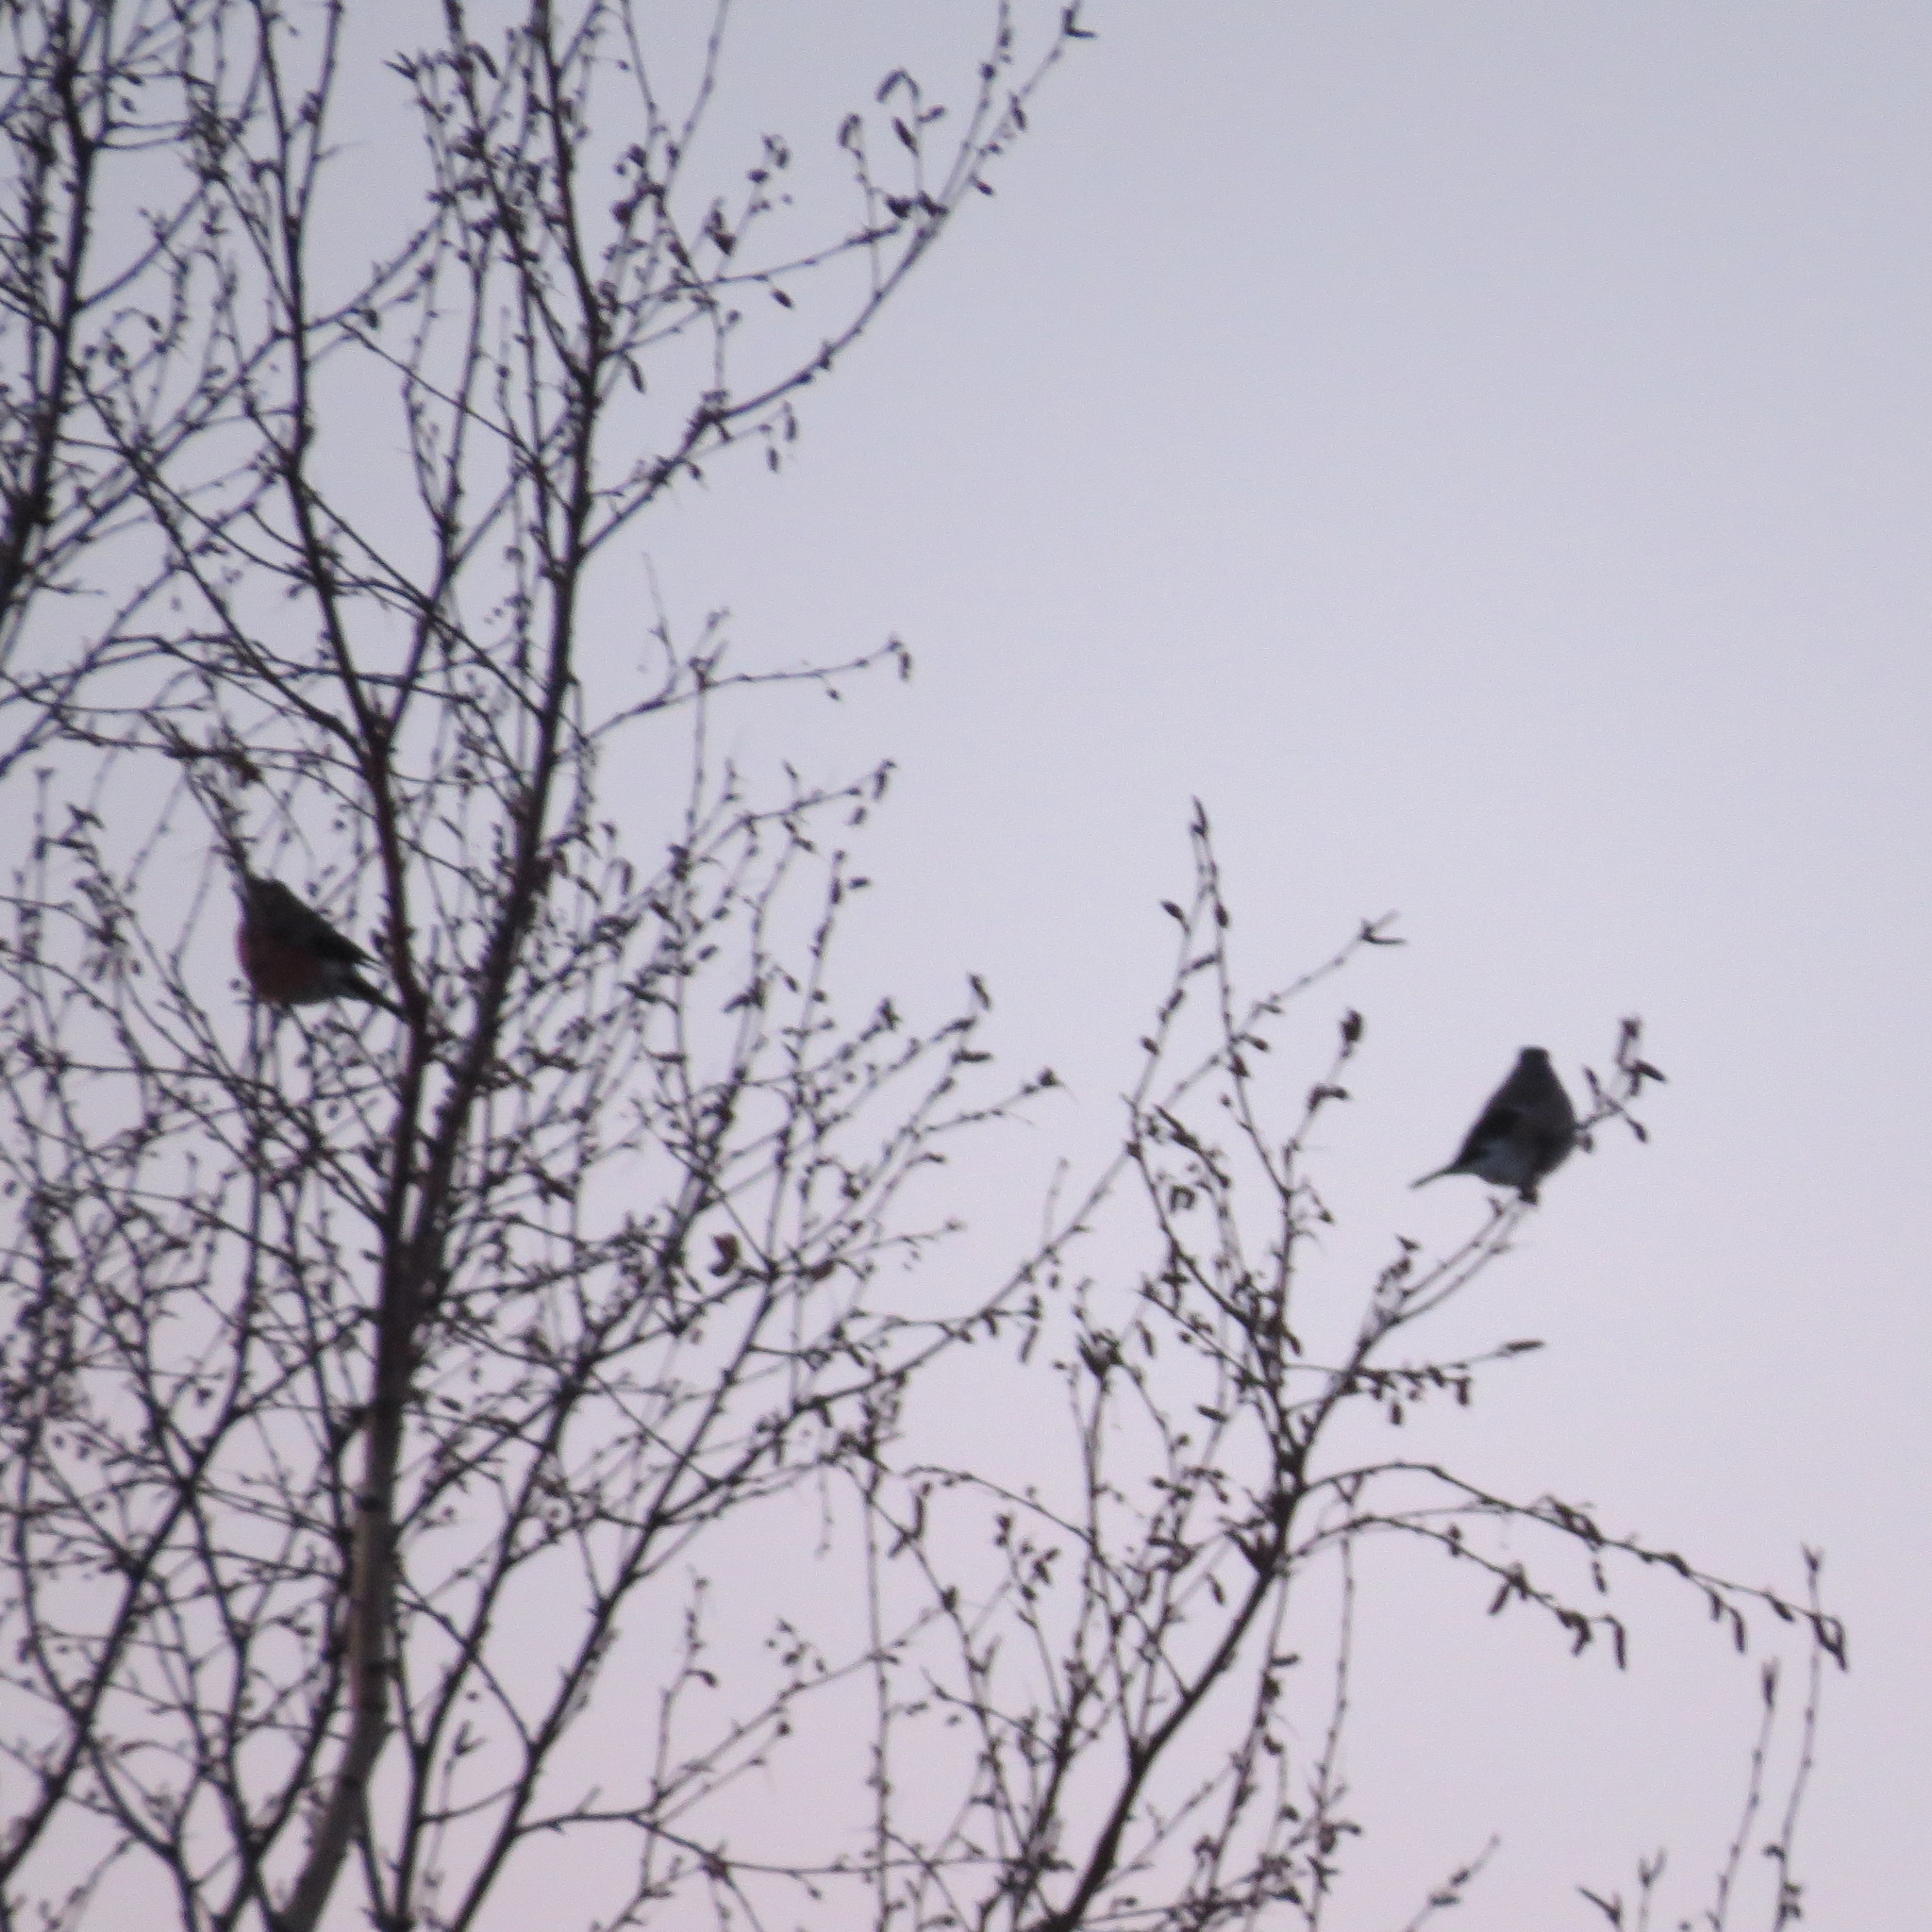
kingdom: Animalia
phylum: Chordata
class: Aves
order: Passeriformes
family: Fringillidae
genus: Coccothraustes
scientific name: Coccothraustes coccothraustes
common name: Hawfinch
